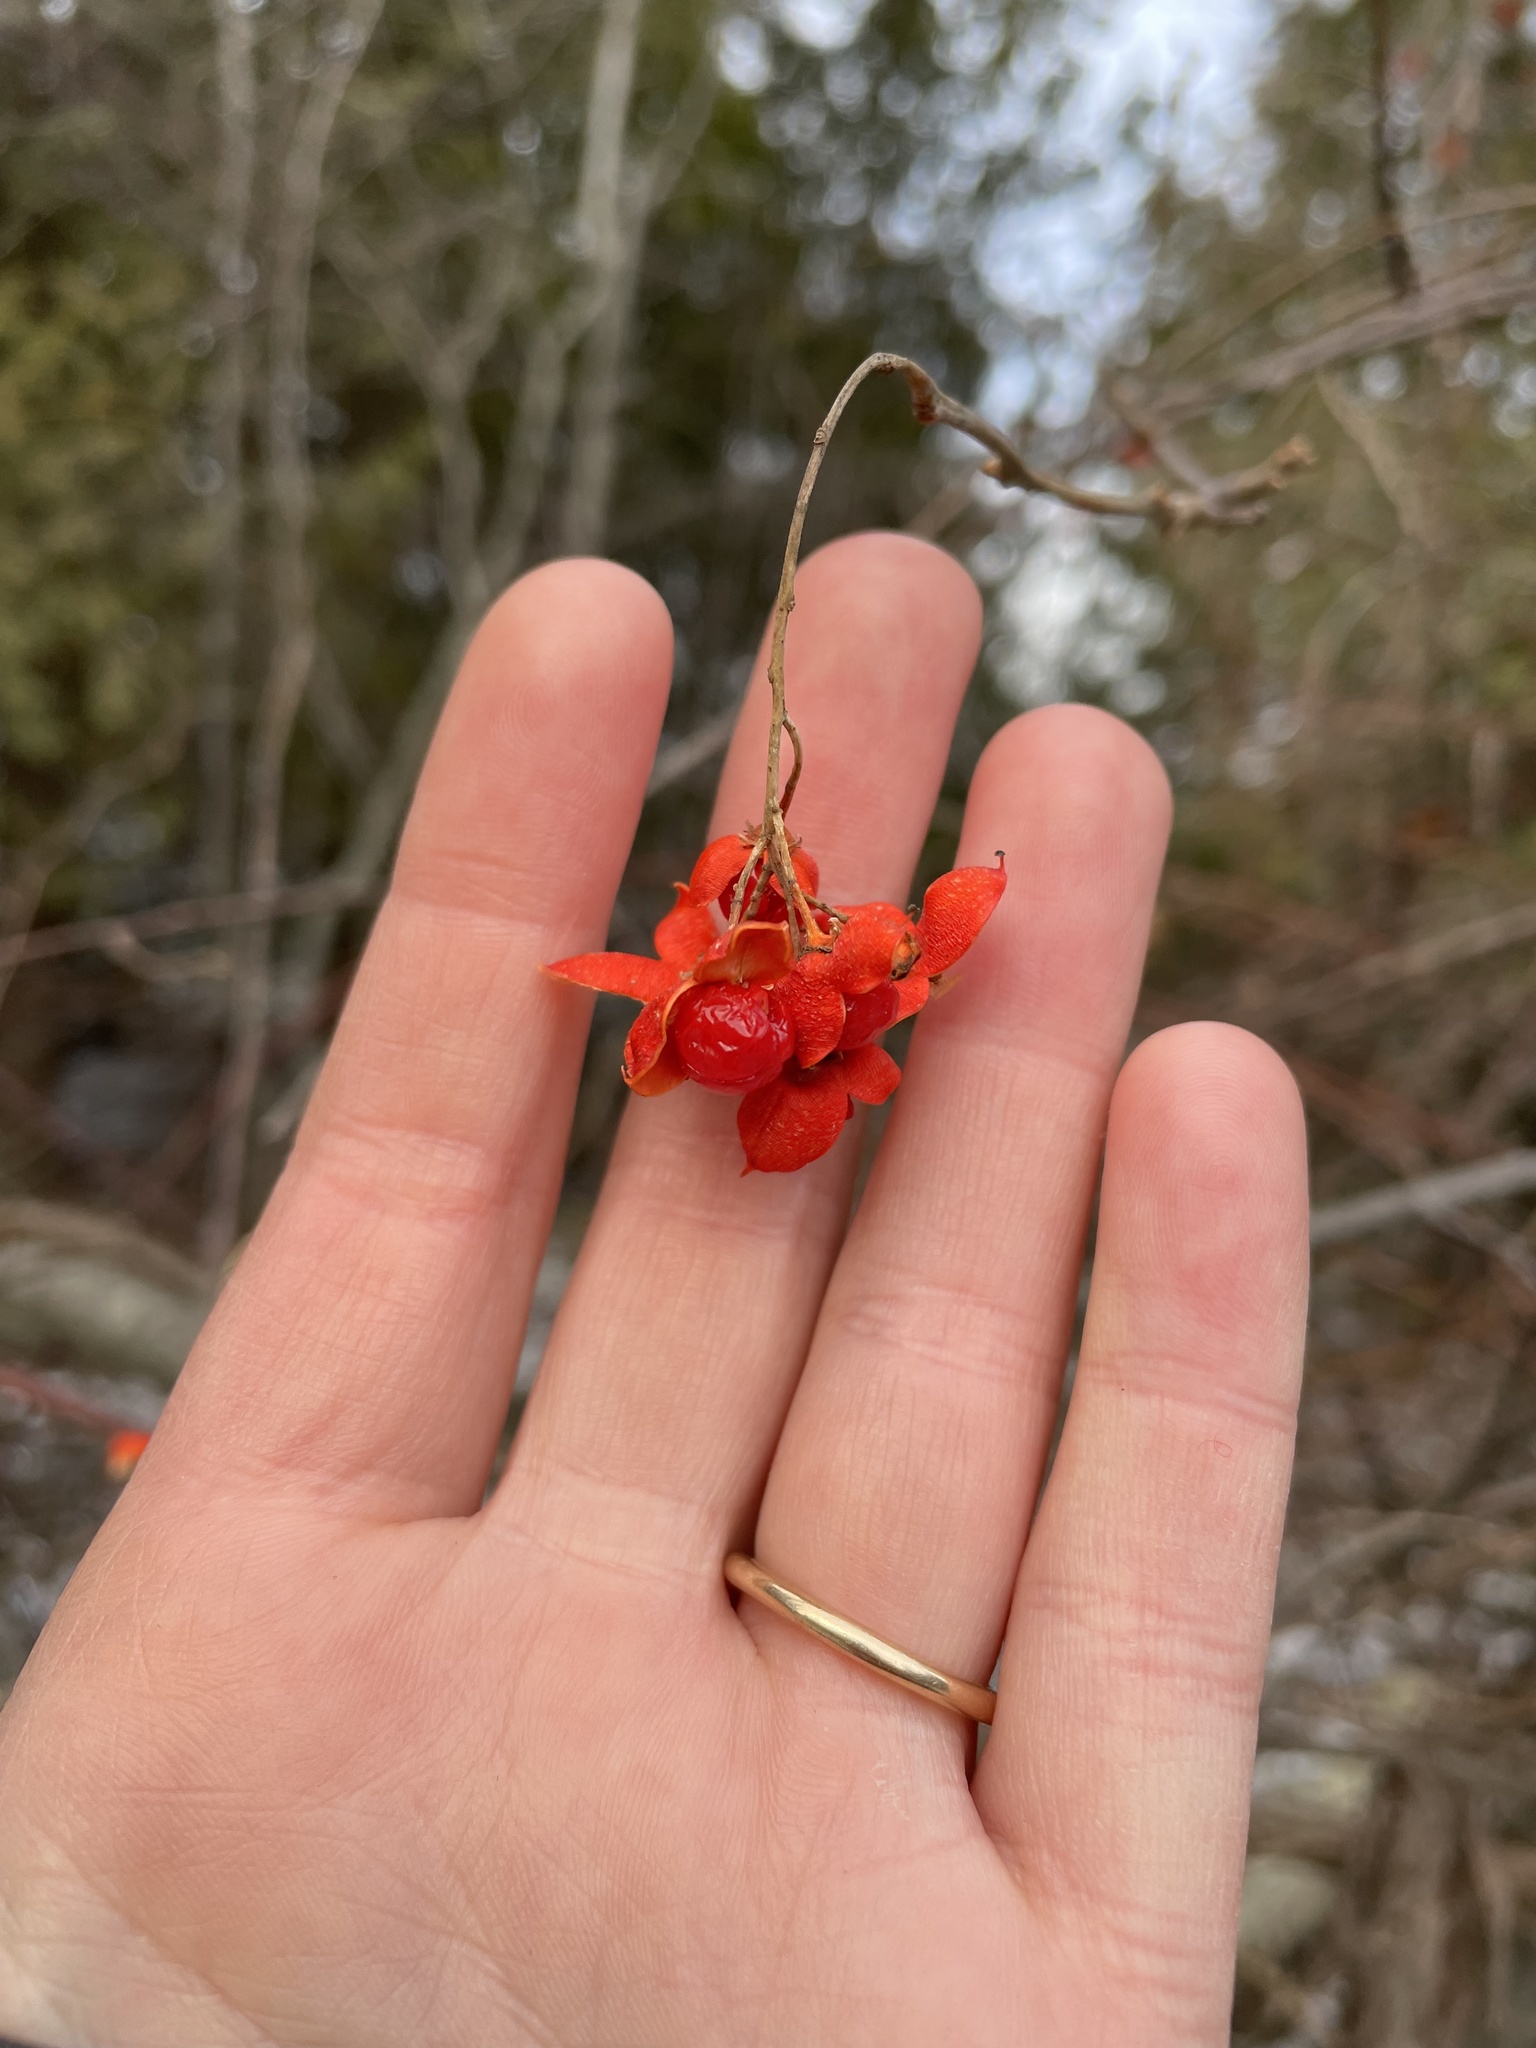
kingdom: Plantae
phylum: Tracheophyta
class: Magnoliopsida
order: Celastrales
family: Celastraceae
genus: Celastrus
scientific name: Celastrus scandens
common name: American bittersweet
